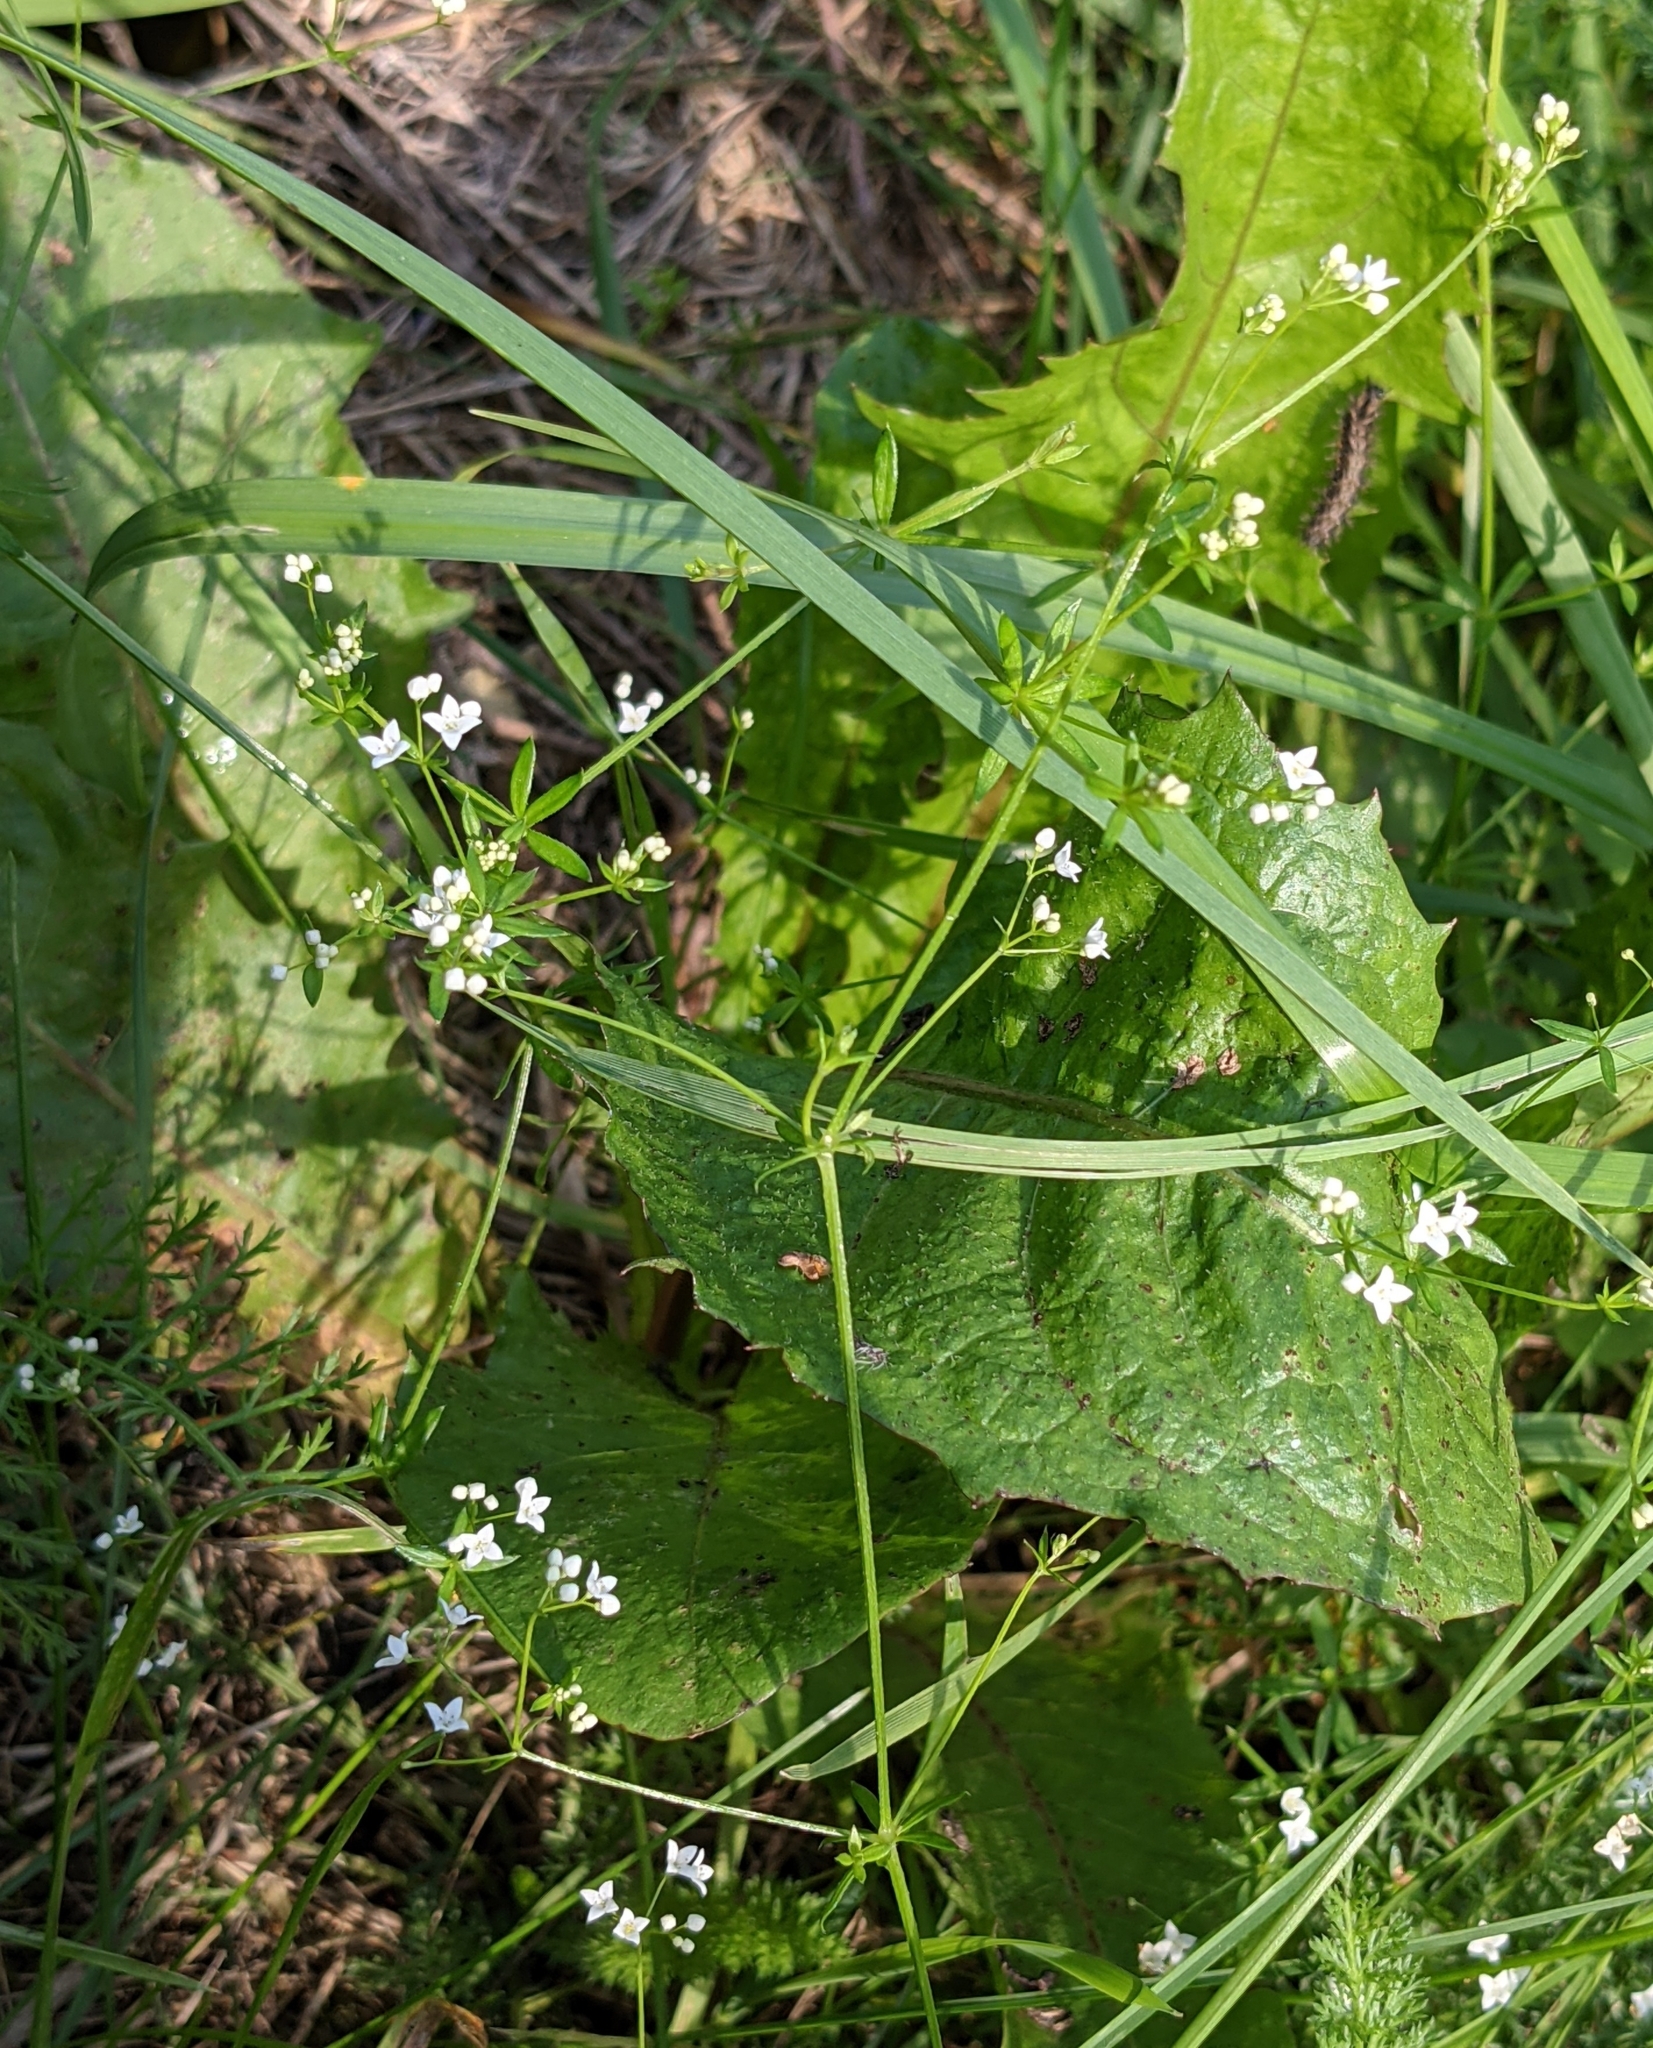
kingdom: Plantae
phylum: Tracheophyta
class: Magnoliopsida
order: Gentianales
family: Rubiaceae
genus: Galium
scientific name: Galium uliginosum
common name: Fen bedstraw
